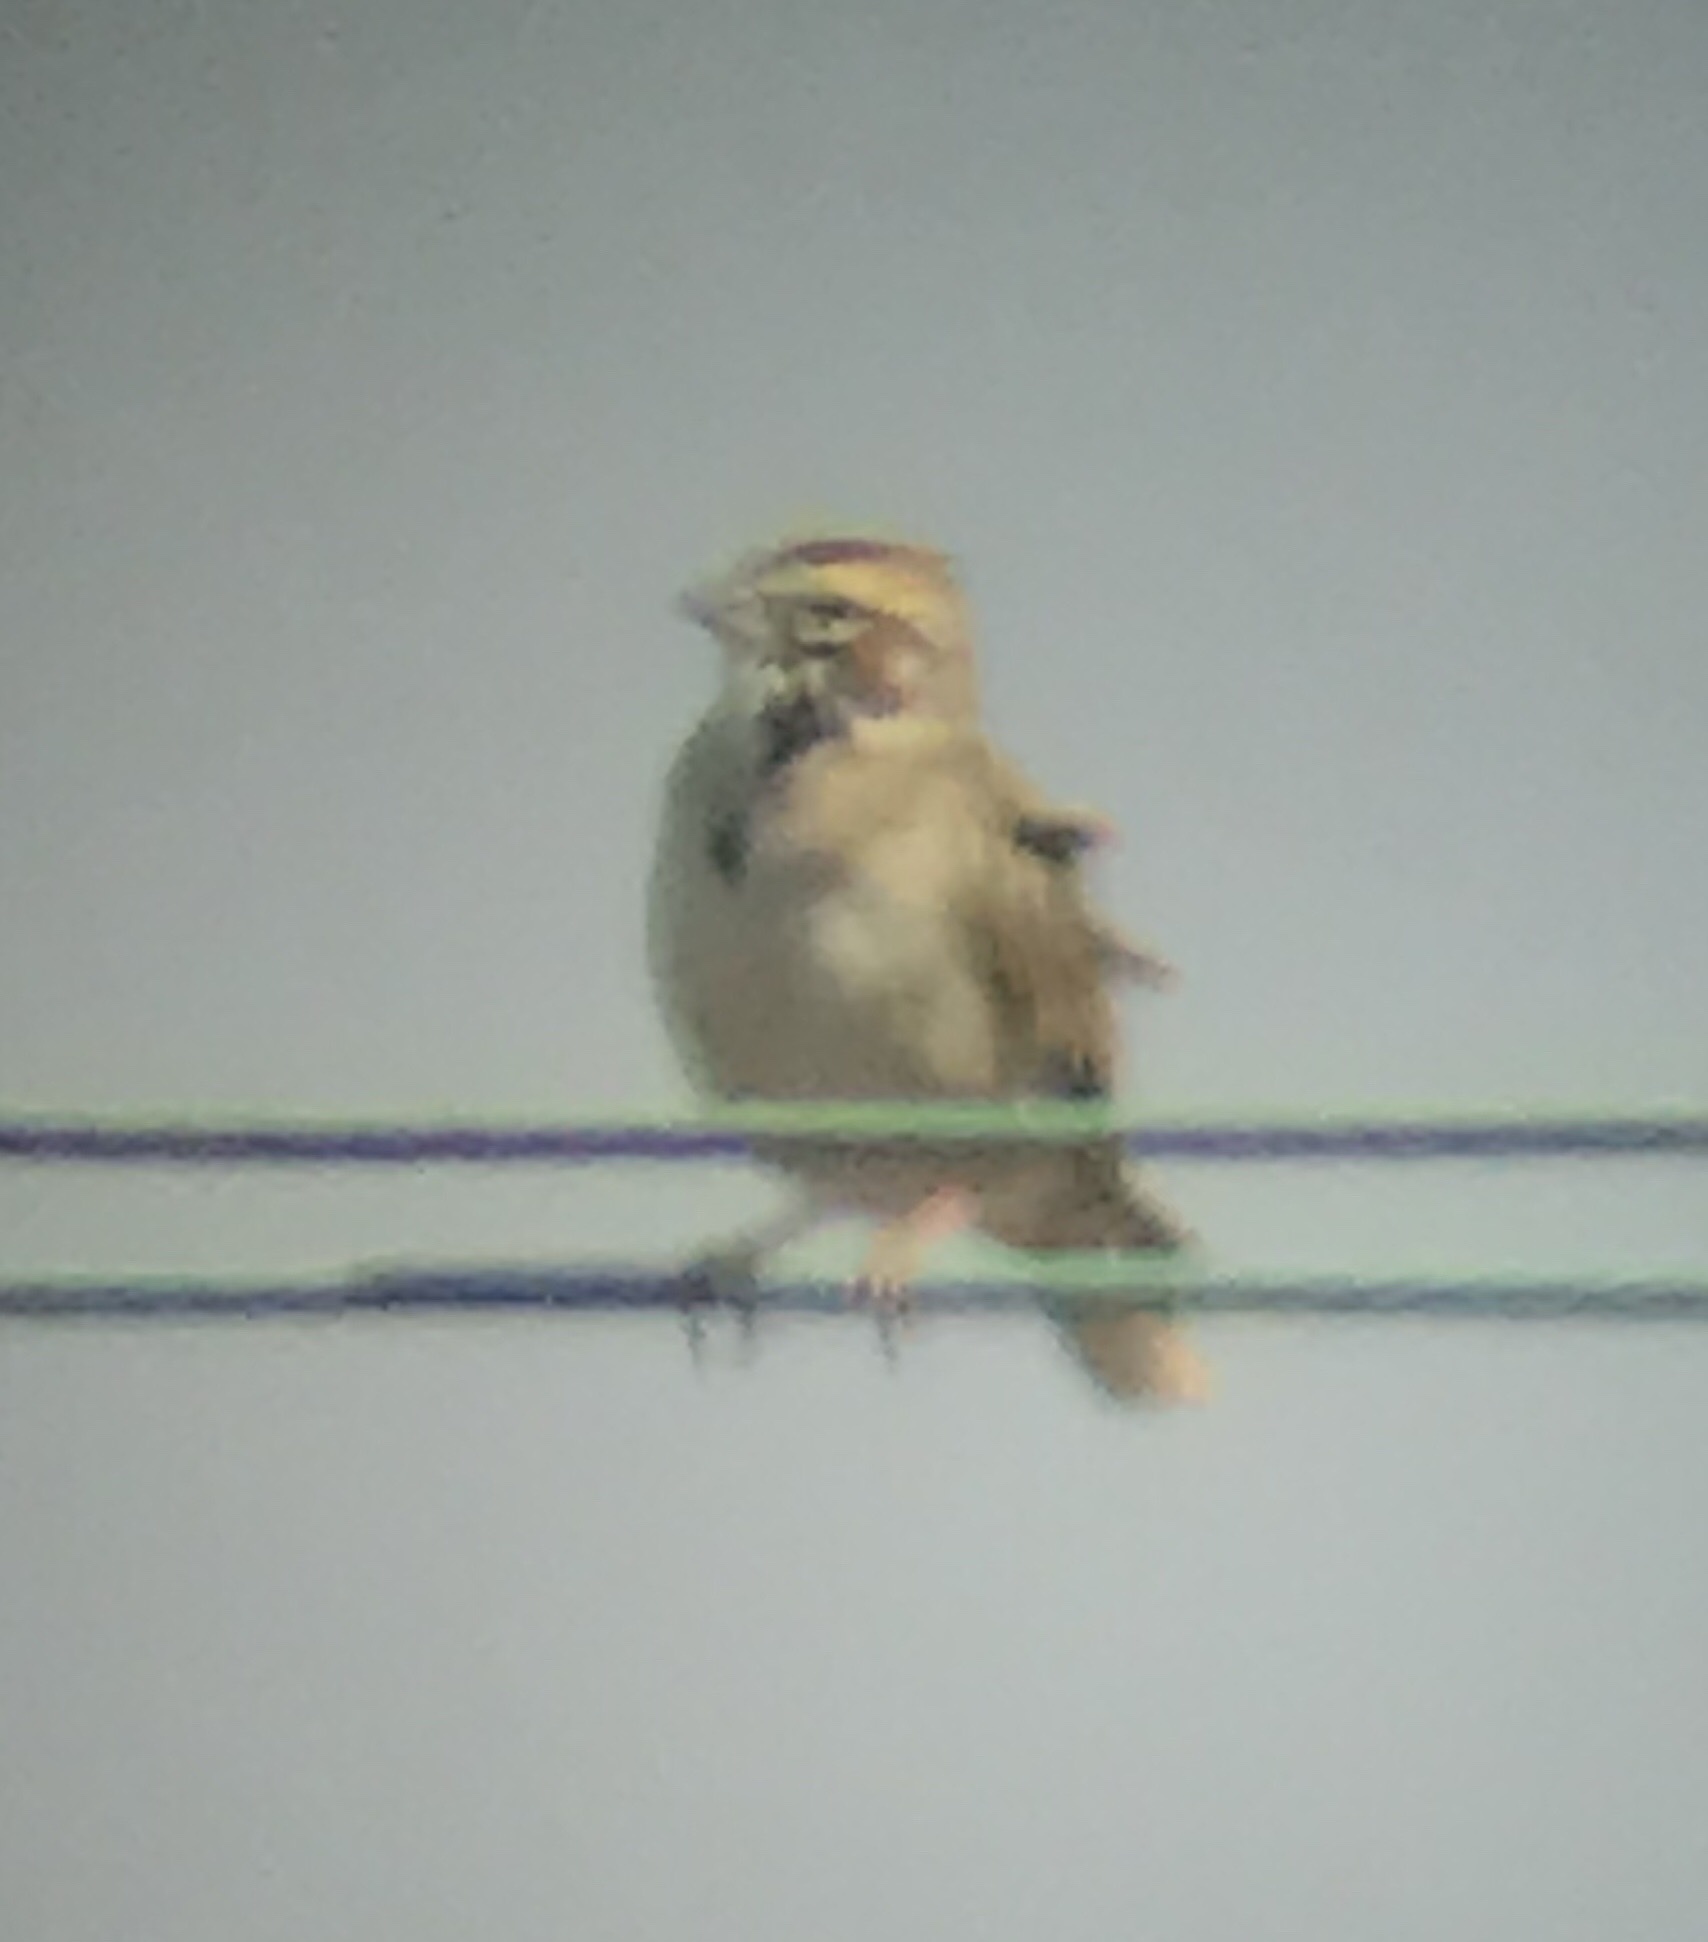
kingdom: Animalia
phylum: Chordata
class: Aves
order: Passeriformes
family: Passerellidae
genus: Chondestes
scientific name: Chondestes grammacus
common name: Lark sparrow
